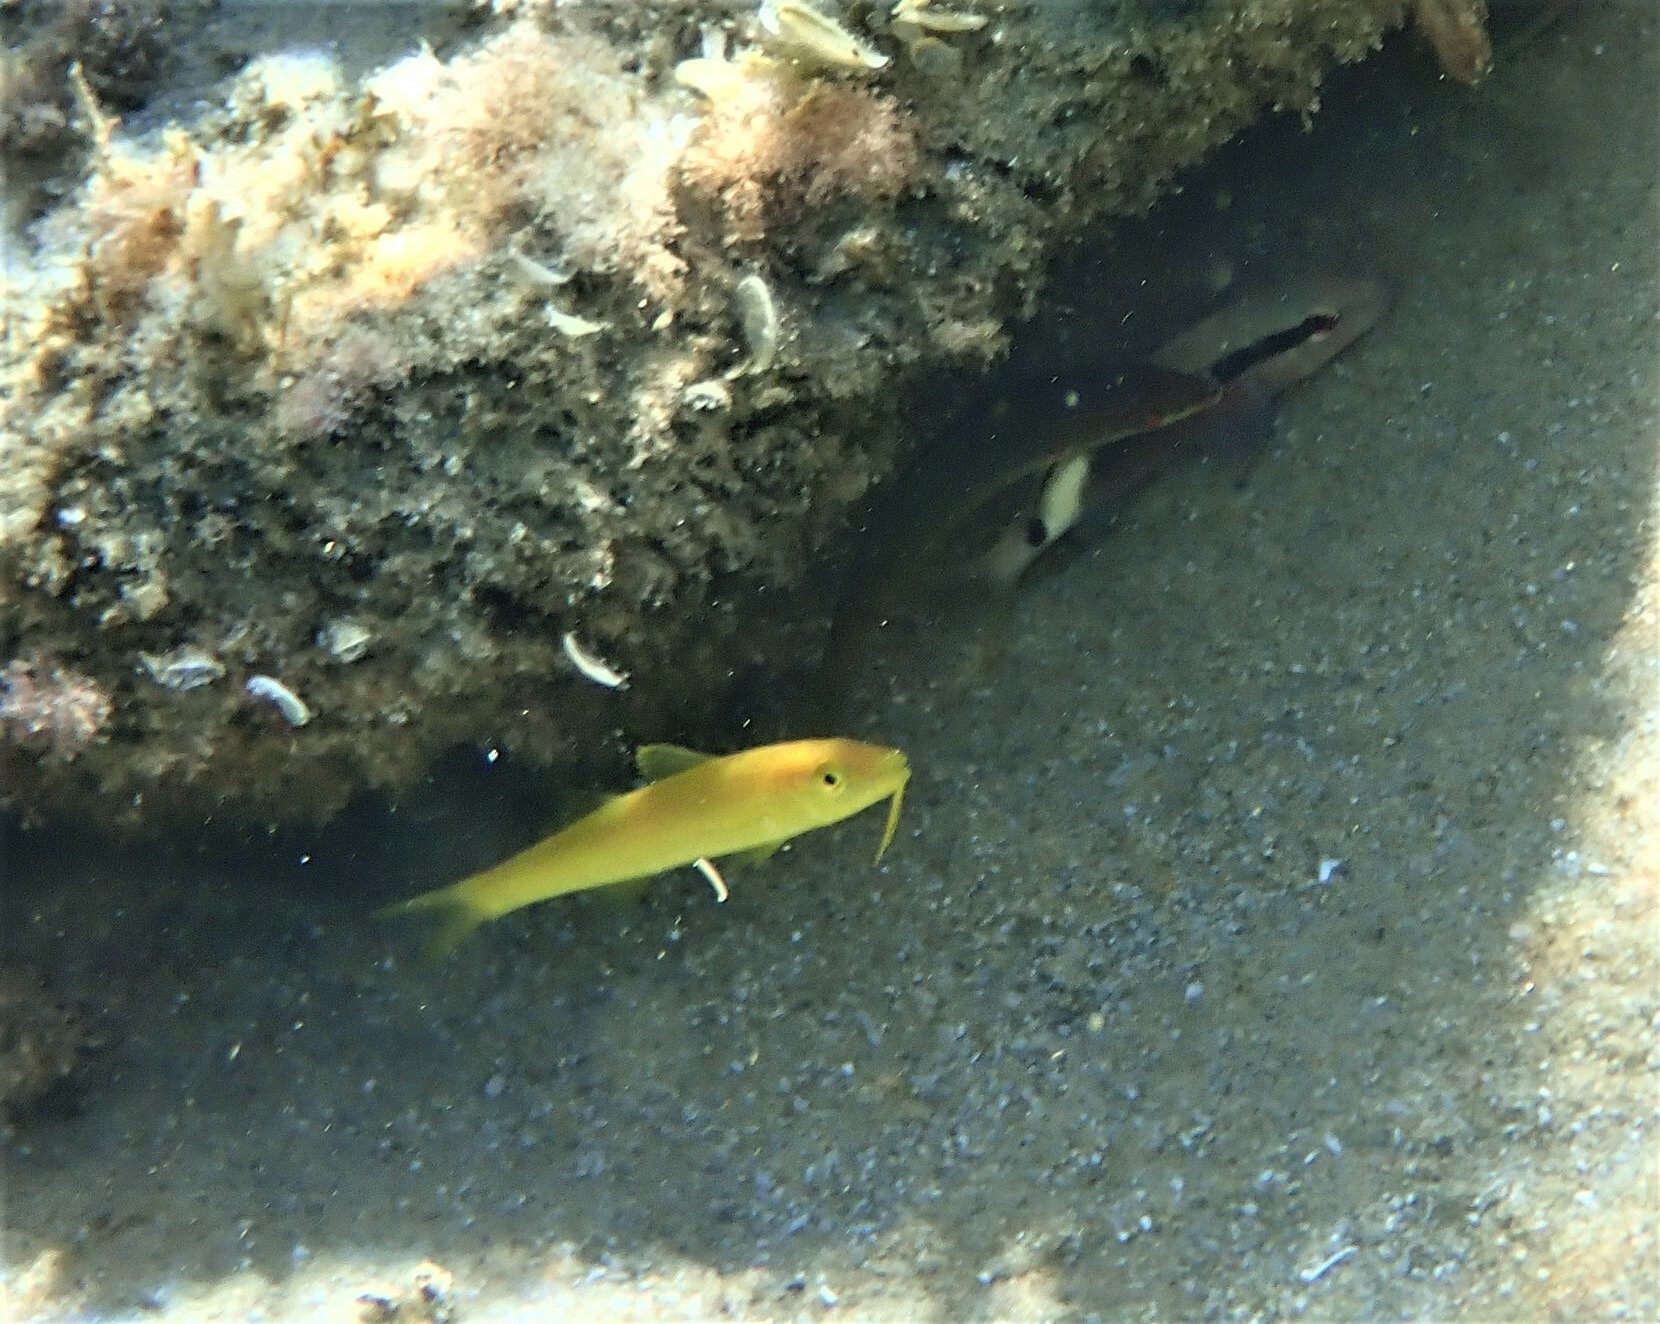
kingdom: Animalia
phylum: Chordata
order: Perciformes
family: Mullidae
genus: Parupeneus
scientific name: Parupeneus cyclostomus
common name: Goldsaddle goatfish
